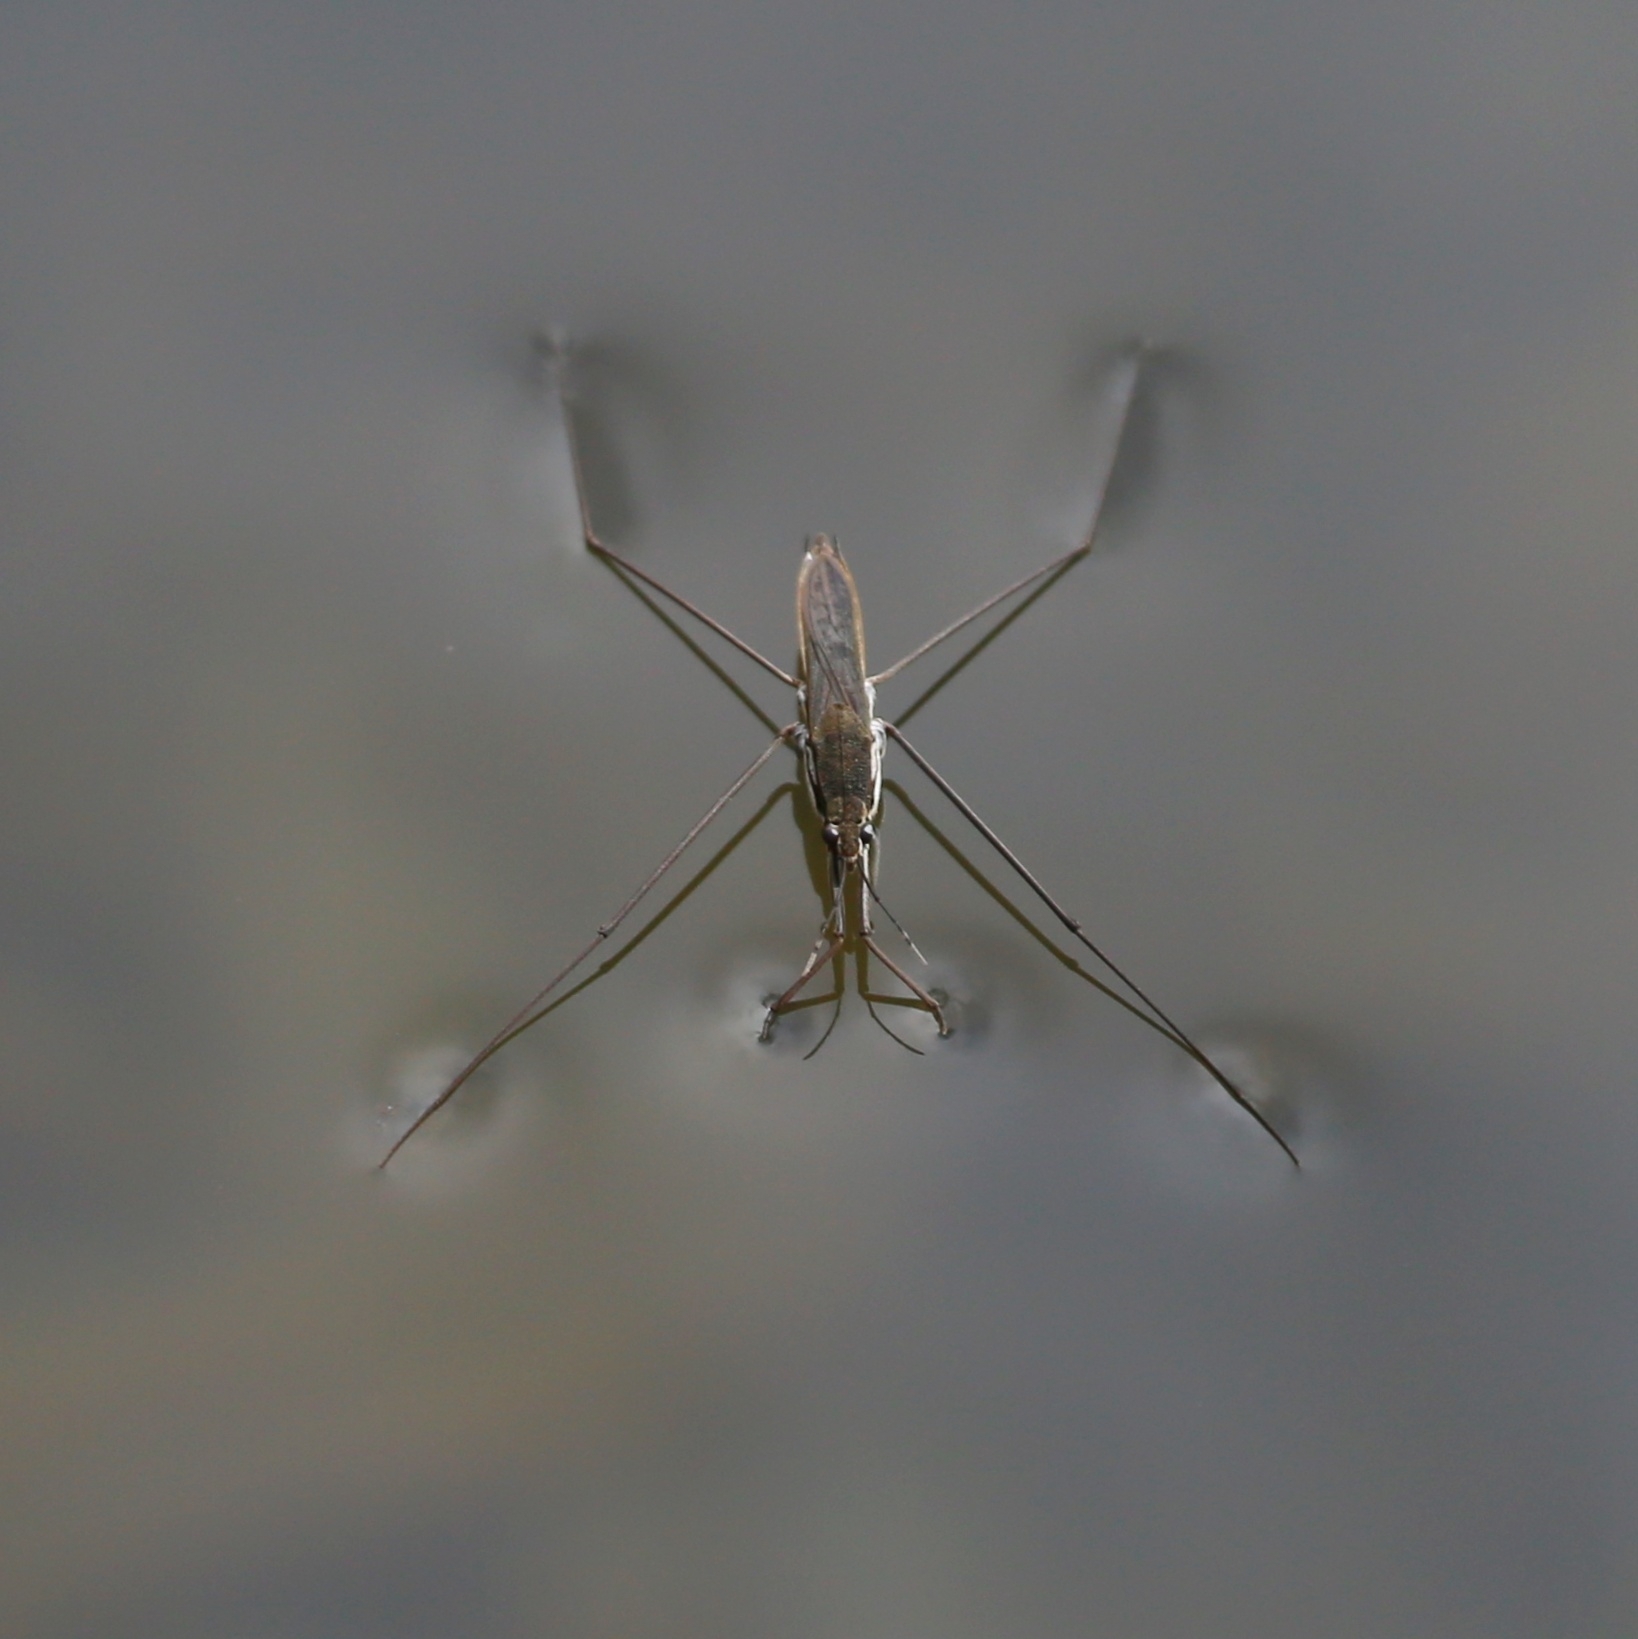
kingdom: Animalia
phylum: Arthropoda
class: Insecta
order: Hemiptera
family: Gerridae
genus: Aquarius
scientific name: Aquarius paludum
